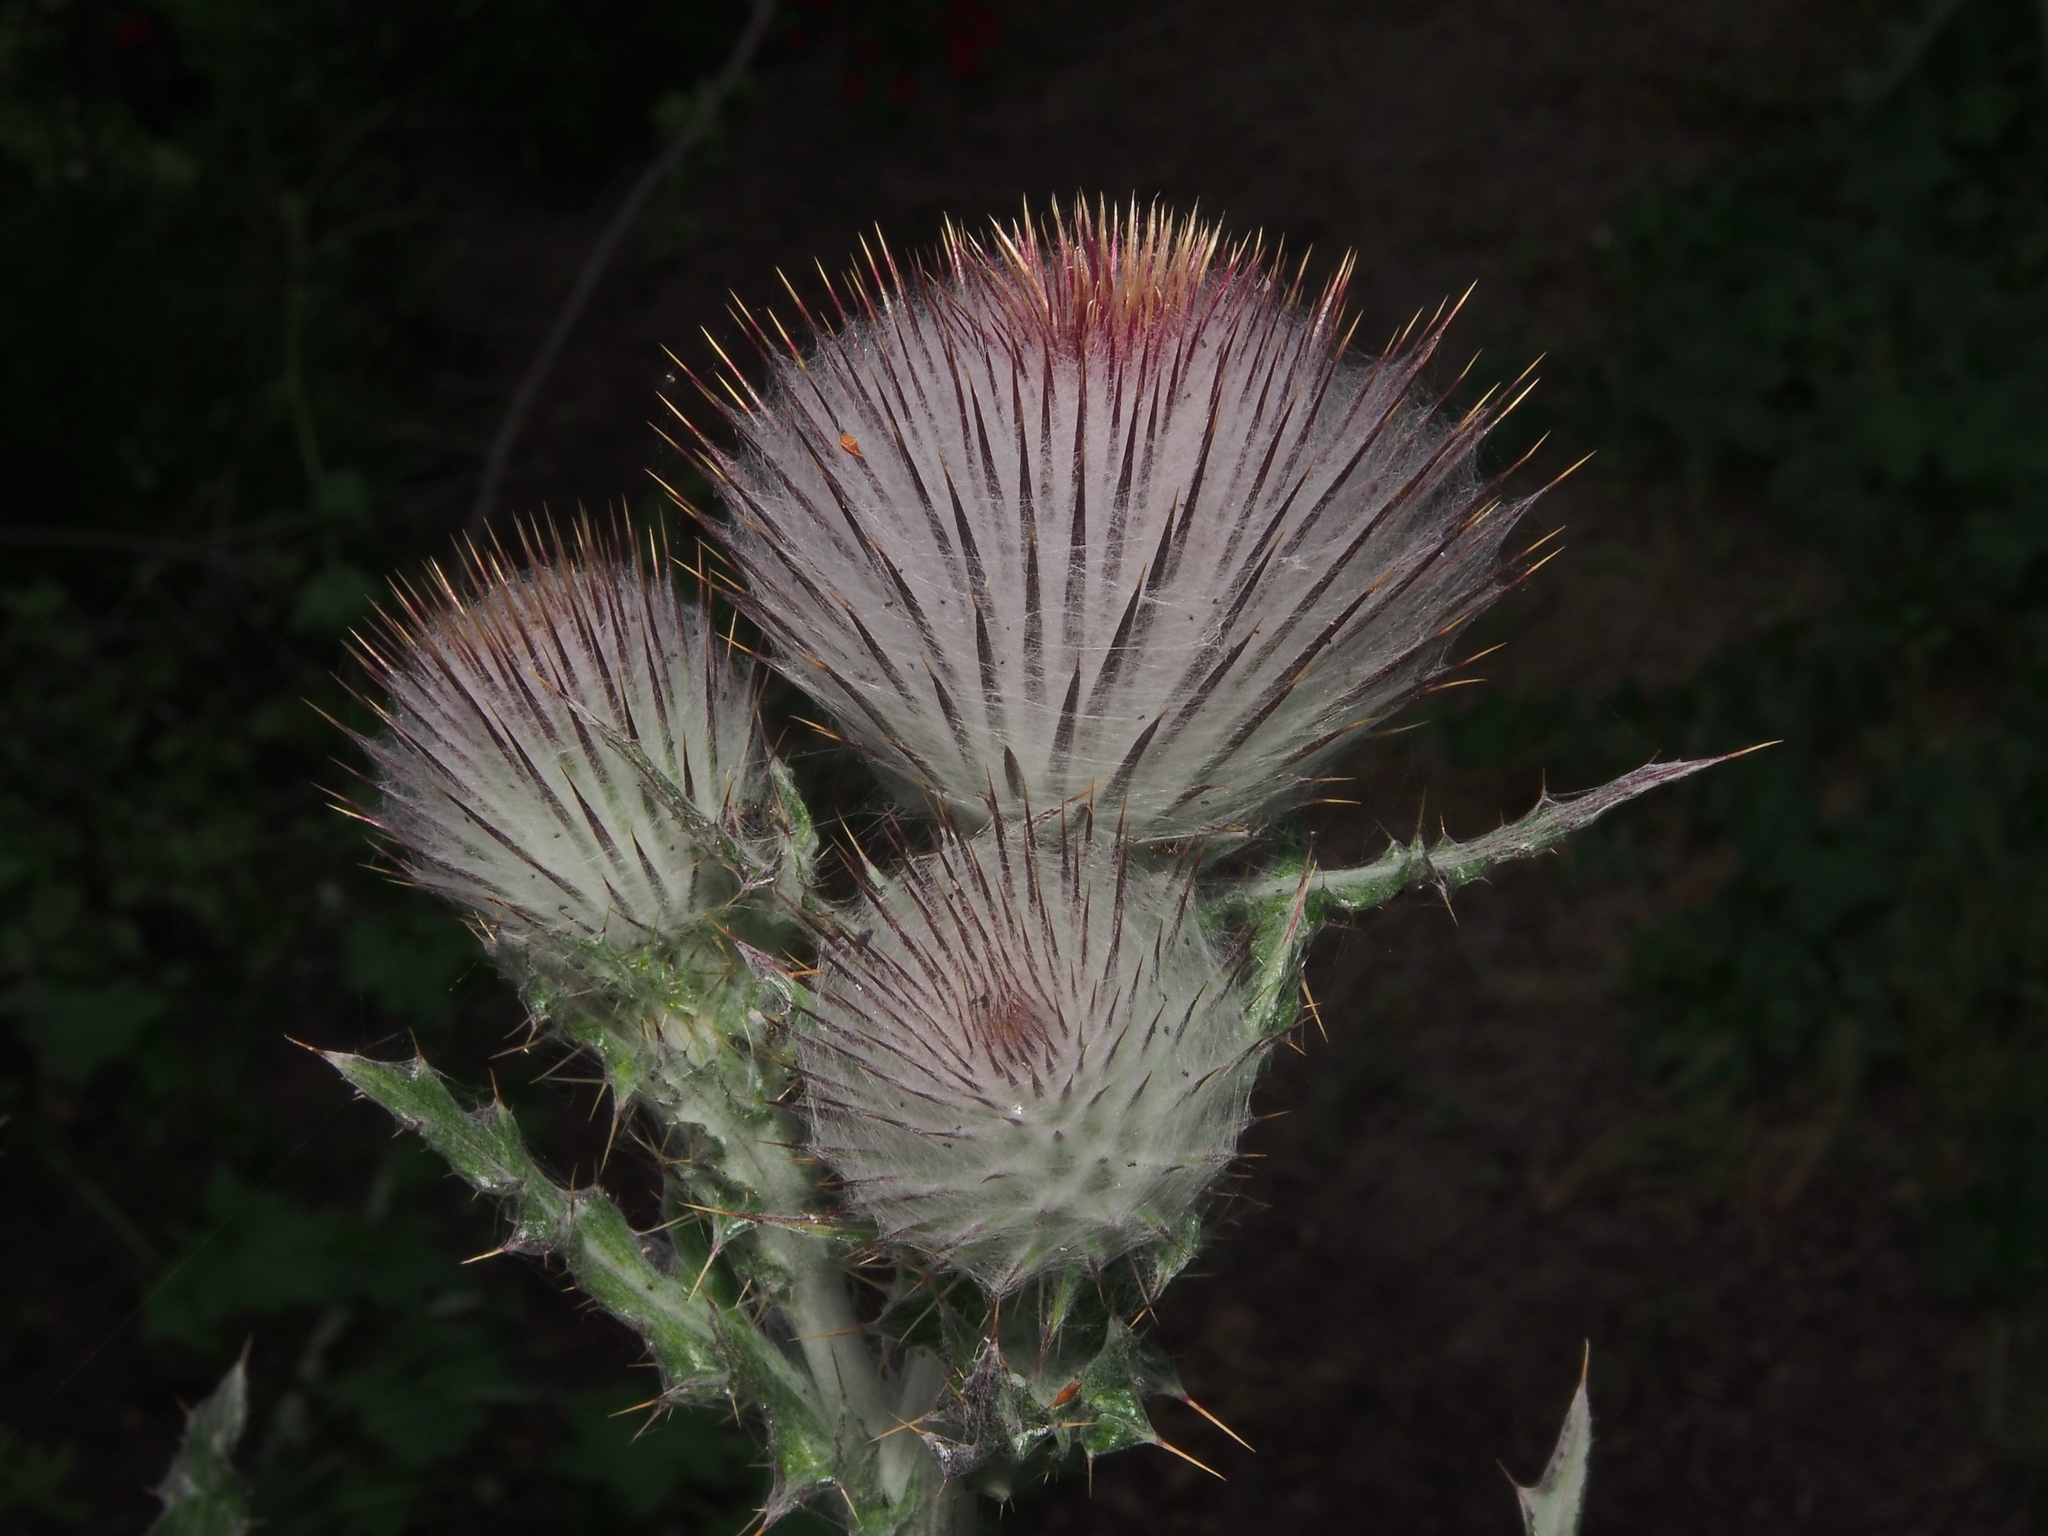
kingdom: Plantae
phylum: Tracheophyta
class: Magnoliopsida
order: Asterales
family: Asteraceae
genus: Cirsium
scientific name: Cirsium occidentale
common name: Western thistle
